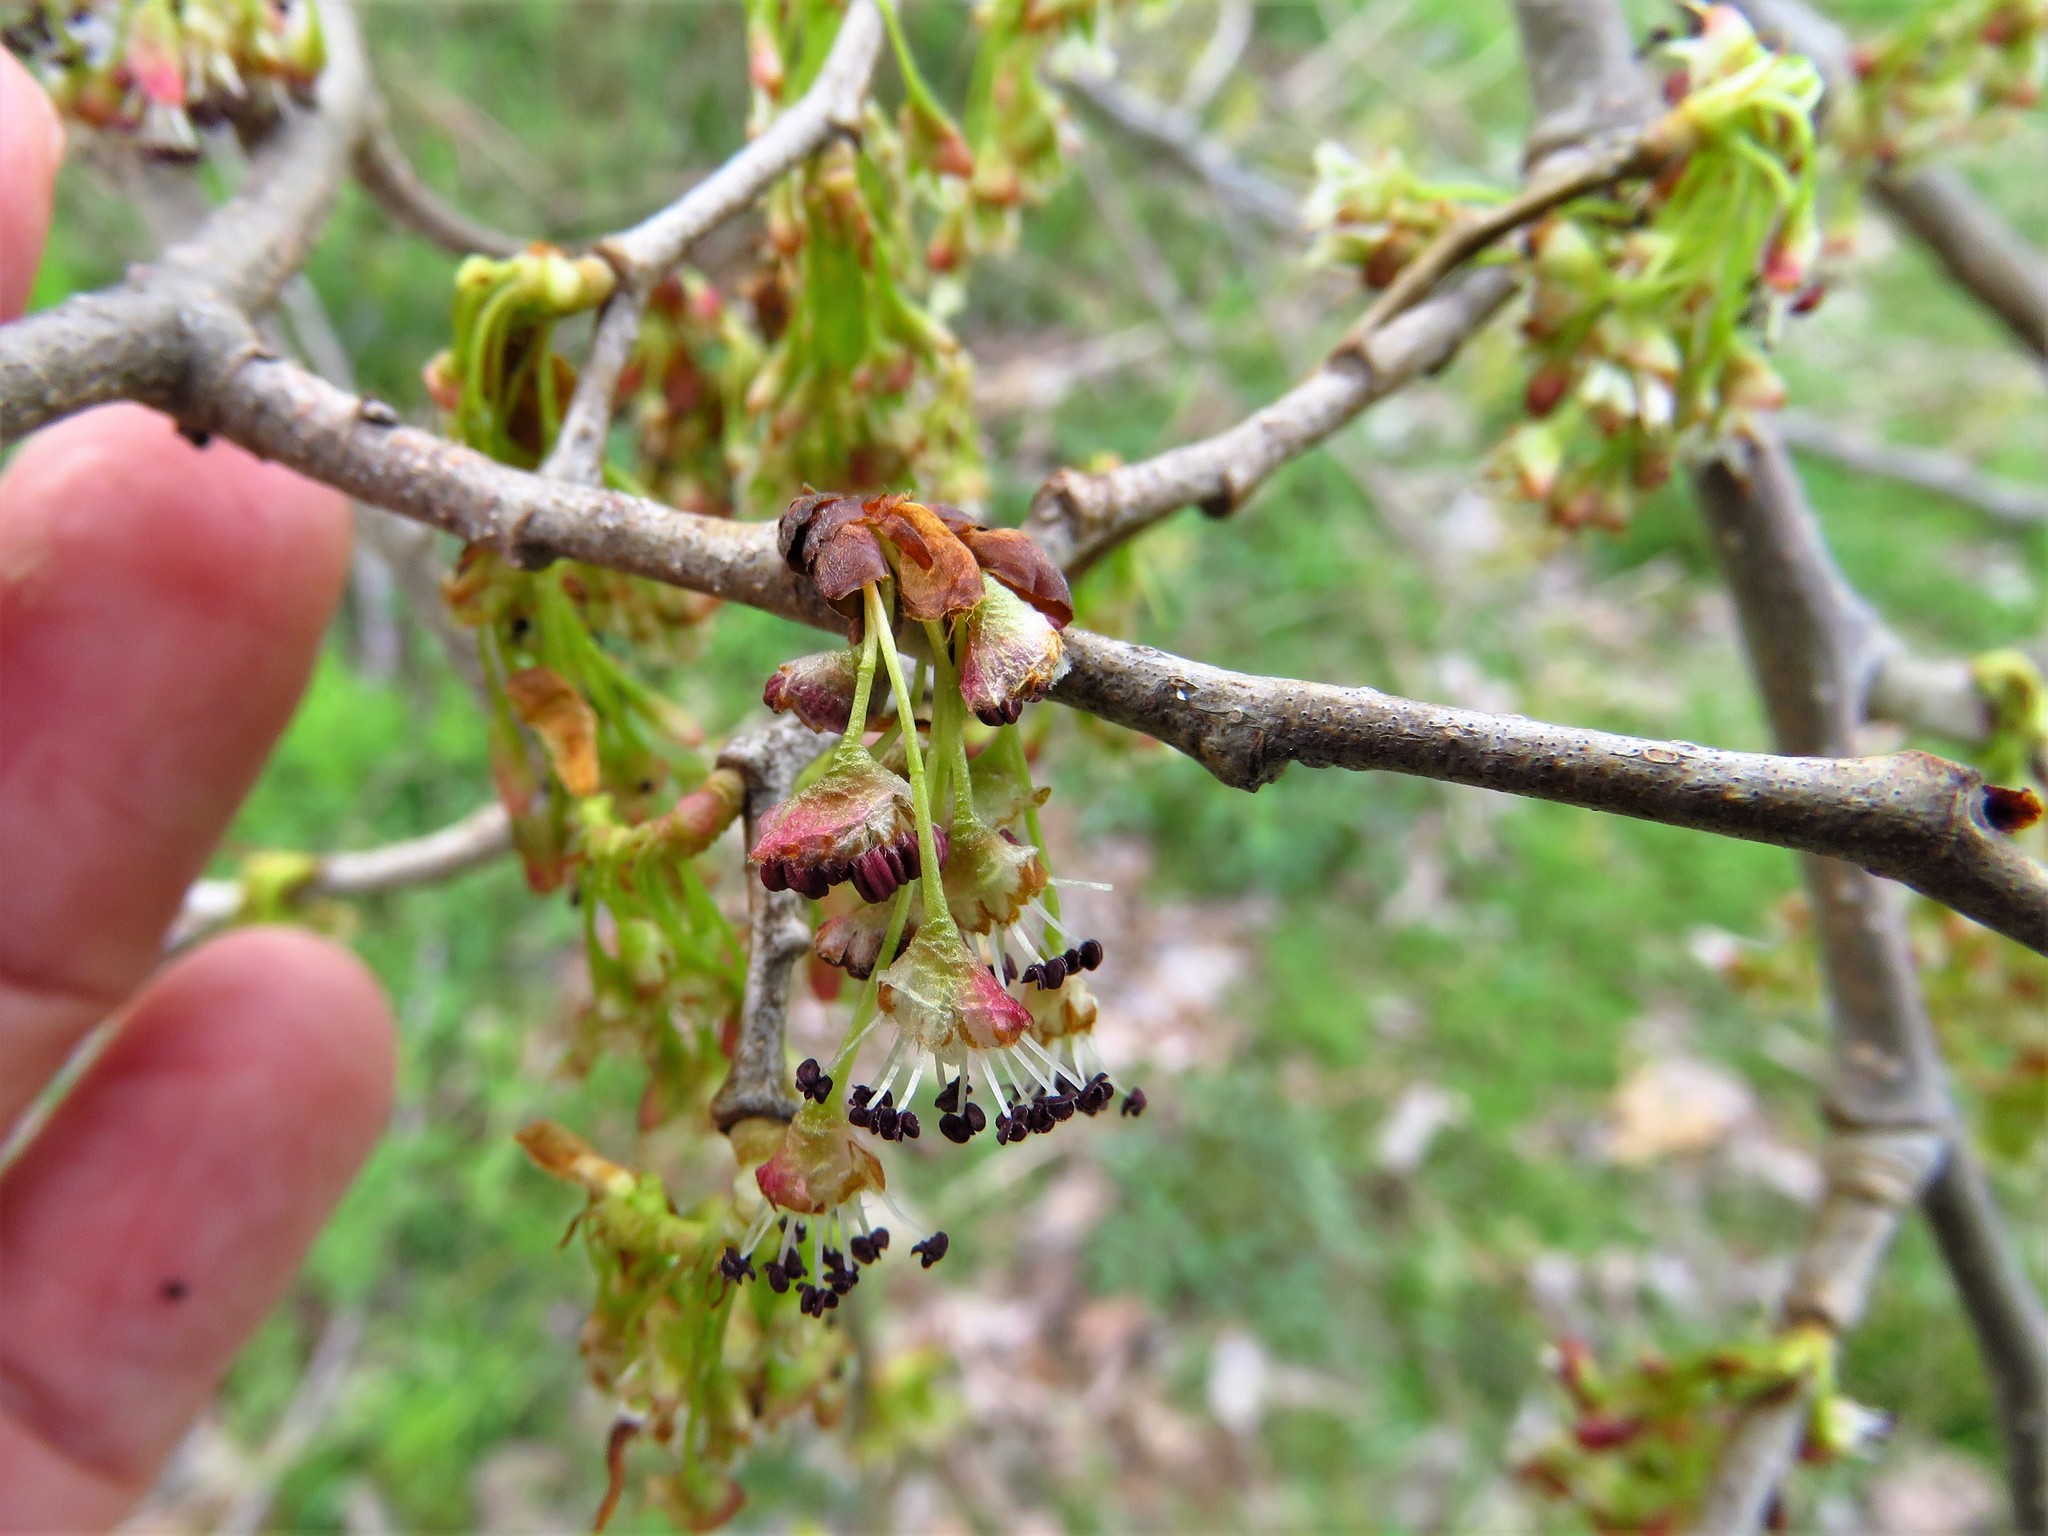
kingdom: Plantae
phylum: Tracheophyta
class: Magnoliopsida
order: Rosales
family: Ulmaceae
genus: Ulmus
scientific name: Ulmus americana
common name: American elm
